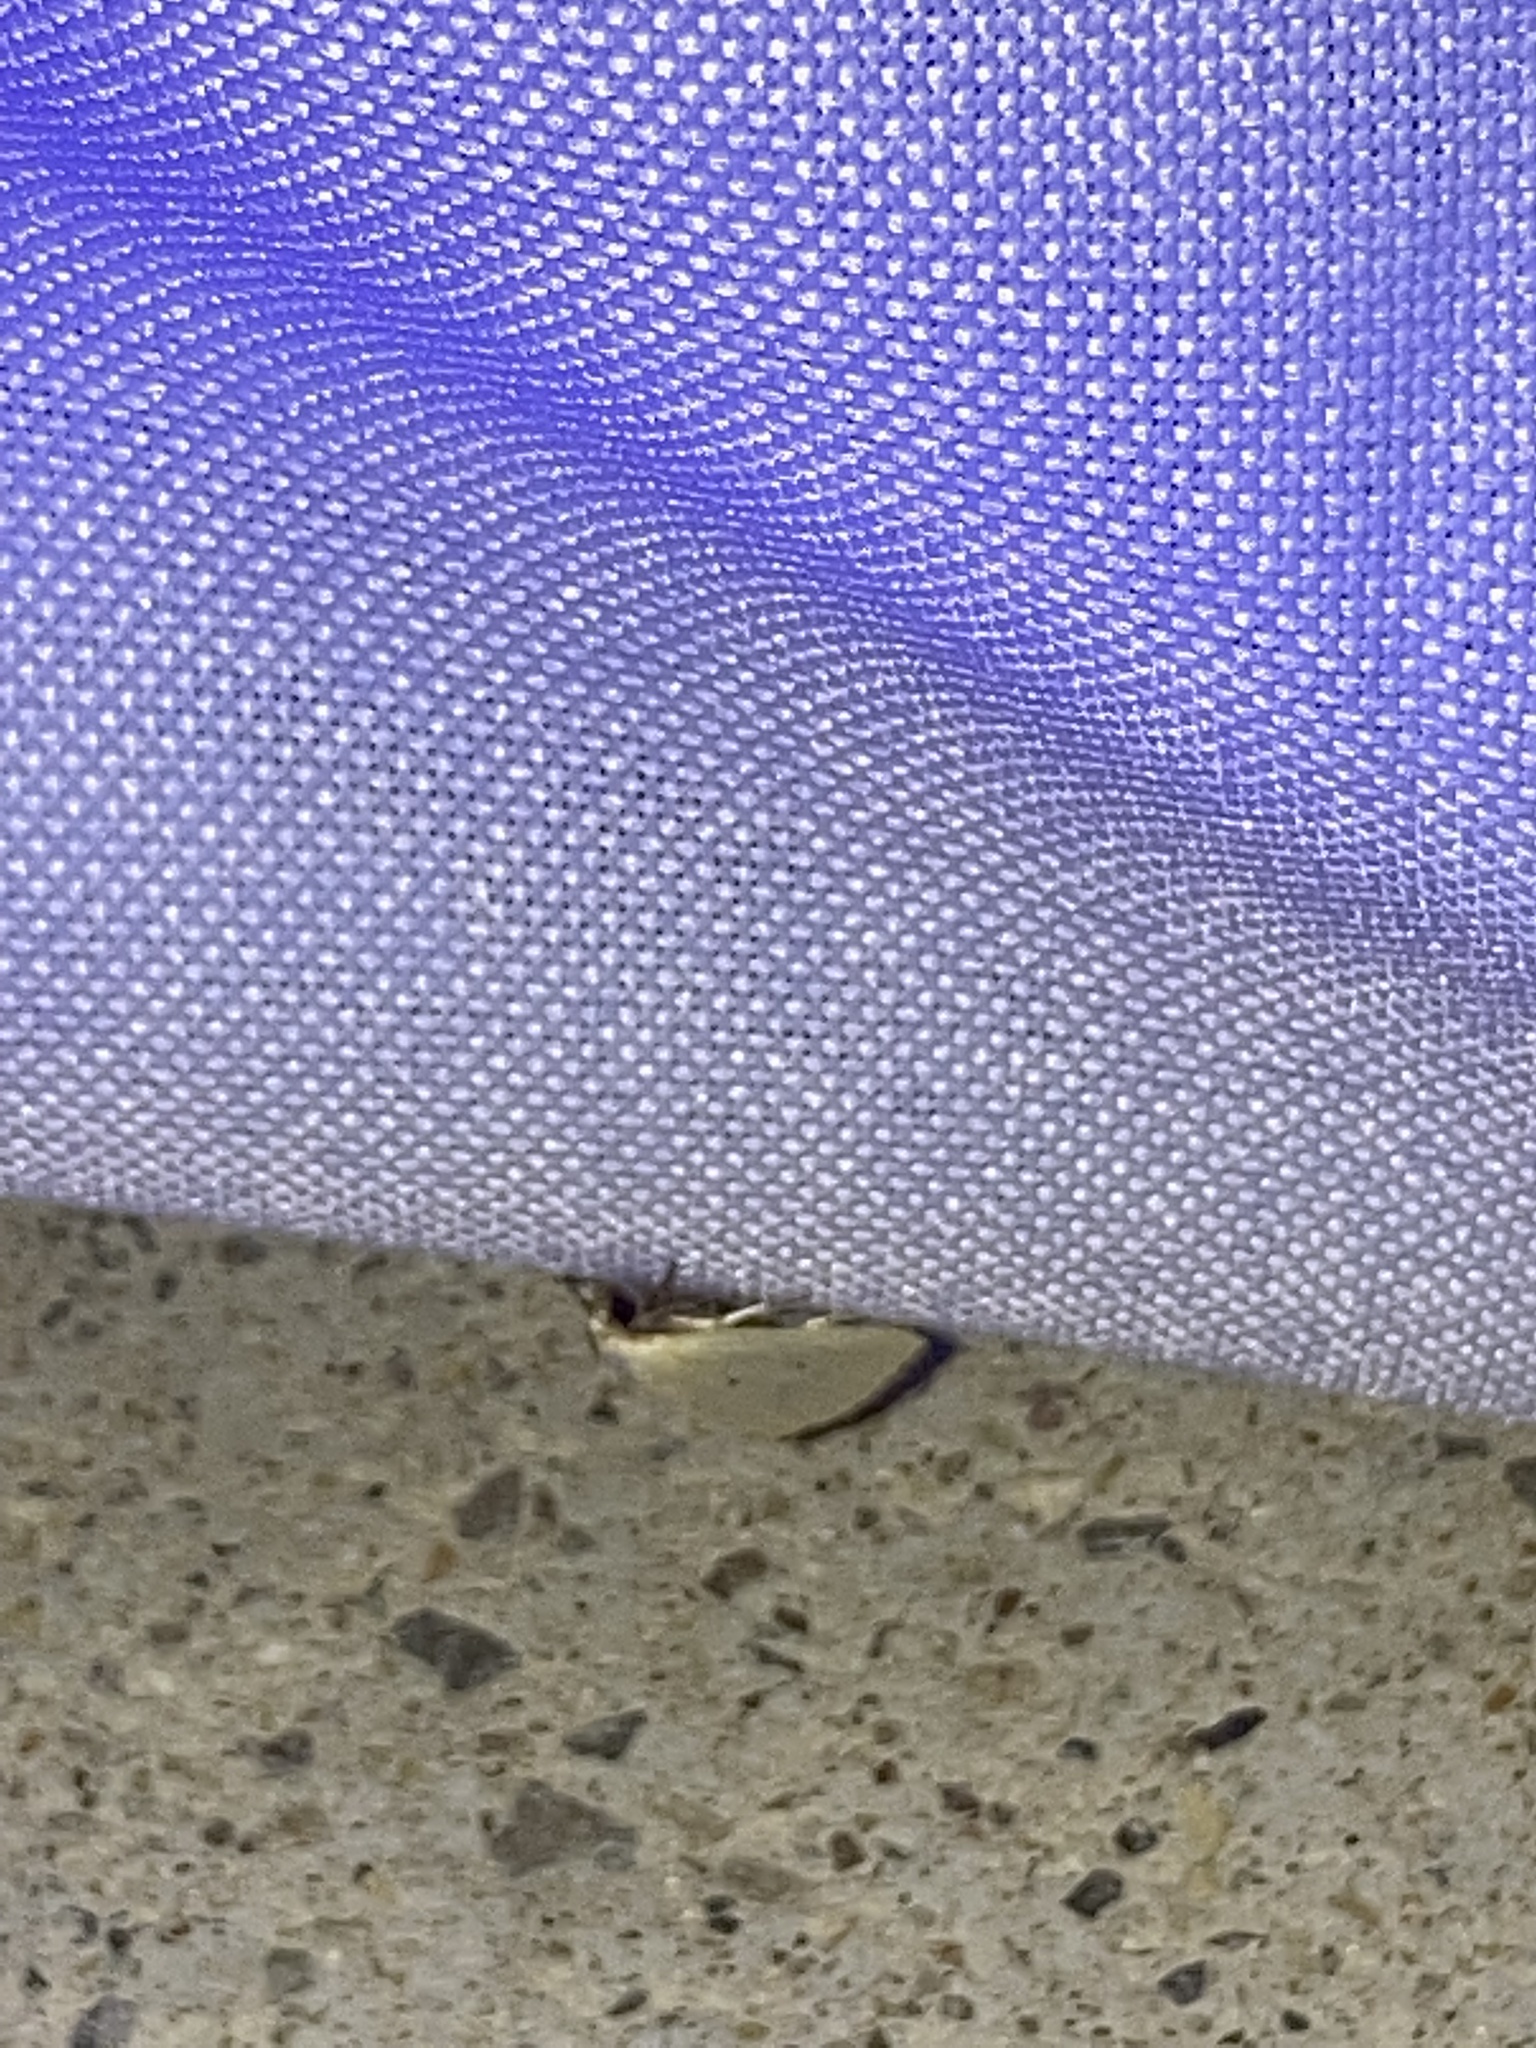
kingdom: Animalia
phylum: Arthropoda
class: Insecta
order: Lepidoptera
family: Noctuidae
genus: Marimatha
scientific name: Marimatha nigrofimbria
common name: Black-bordered lemon moth
